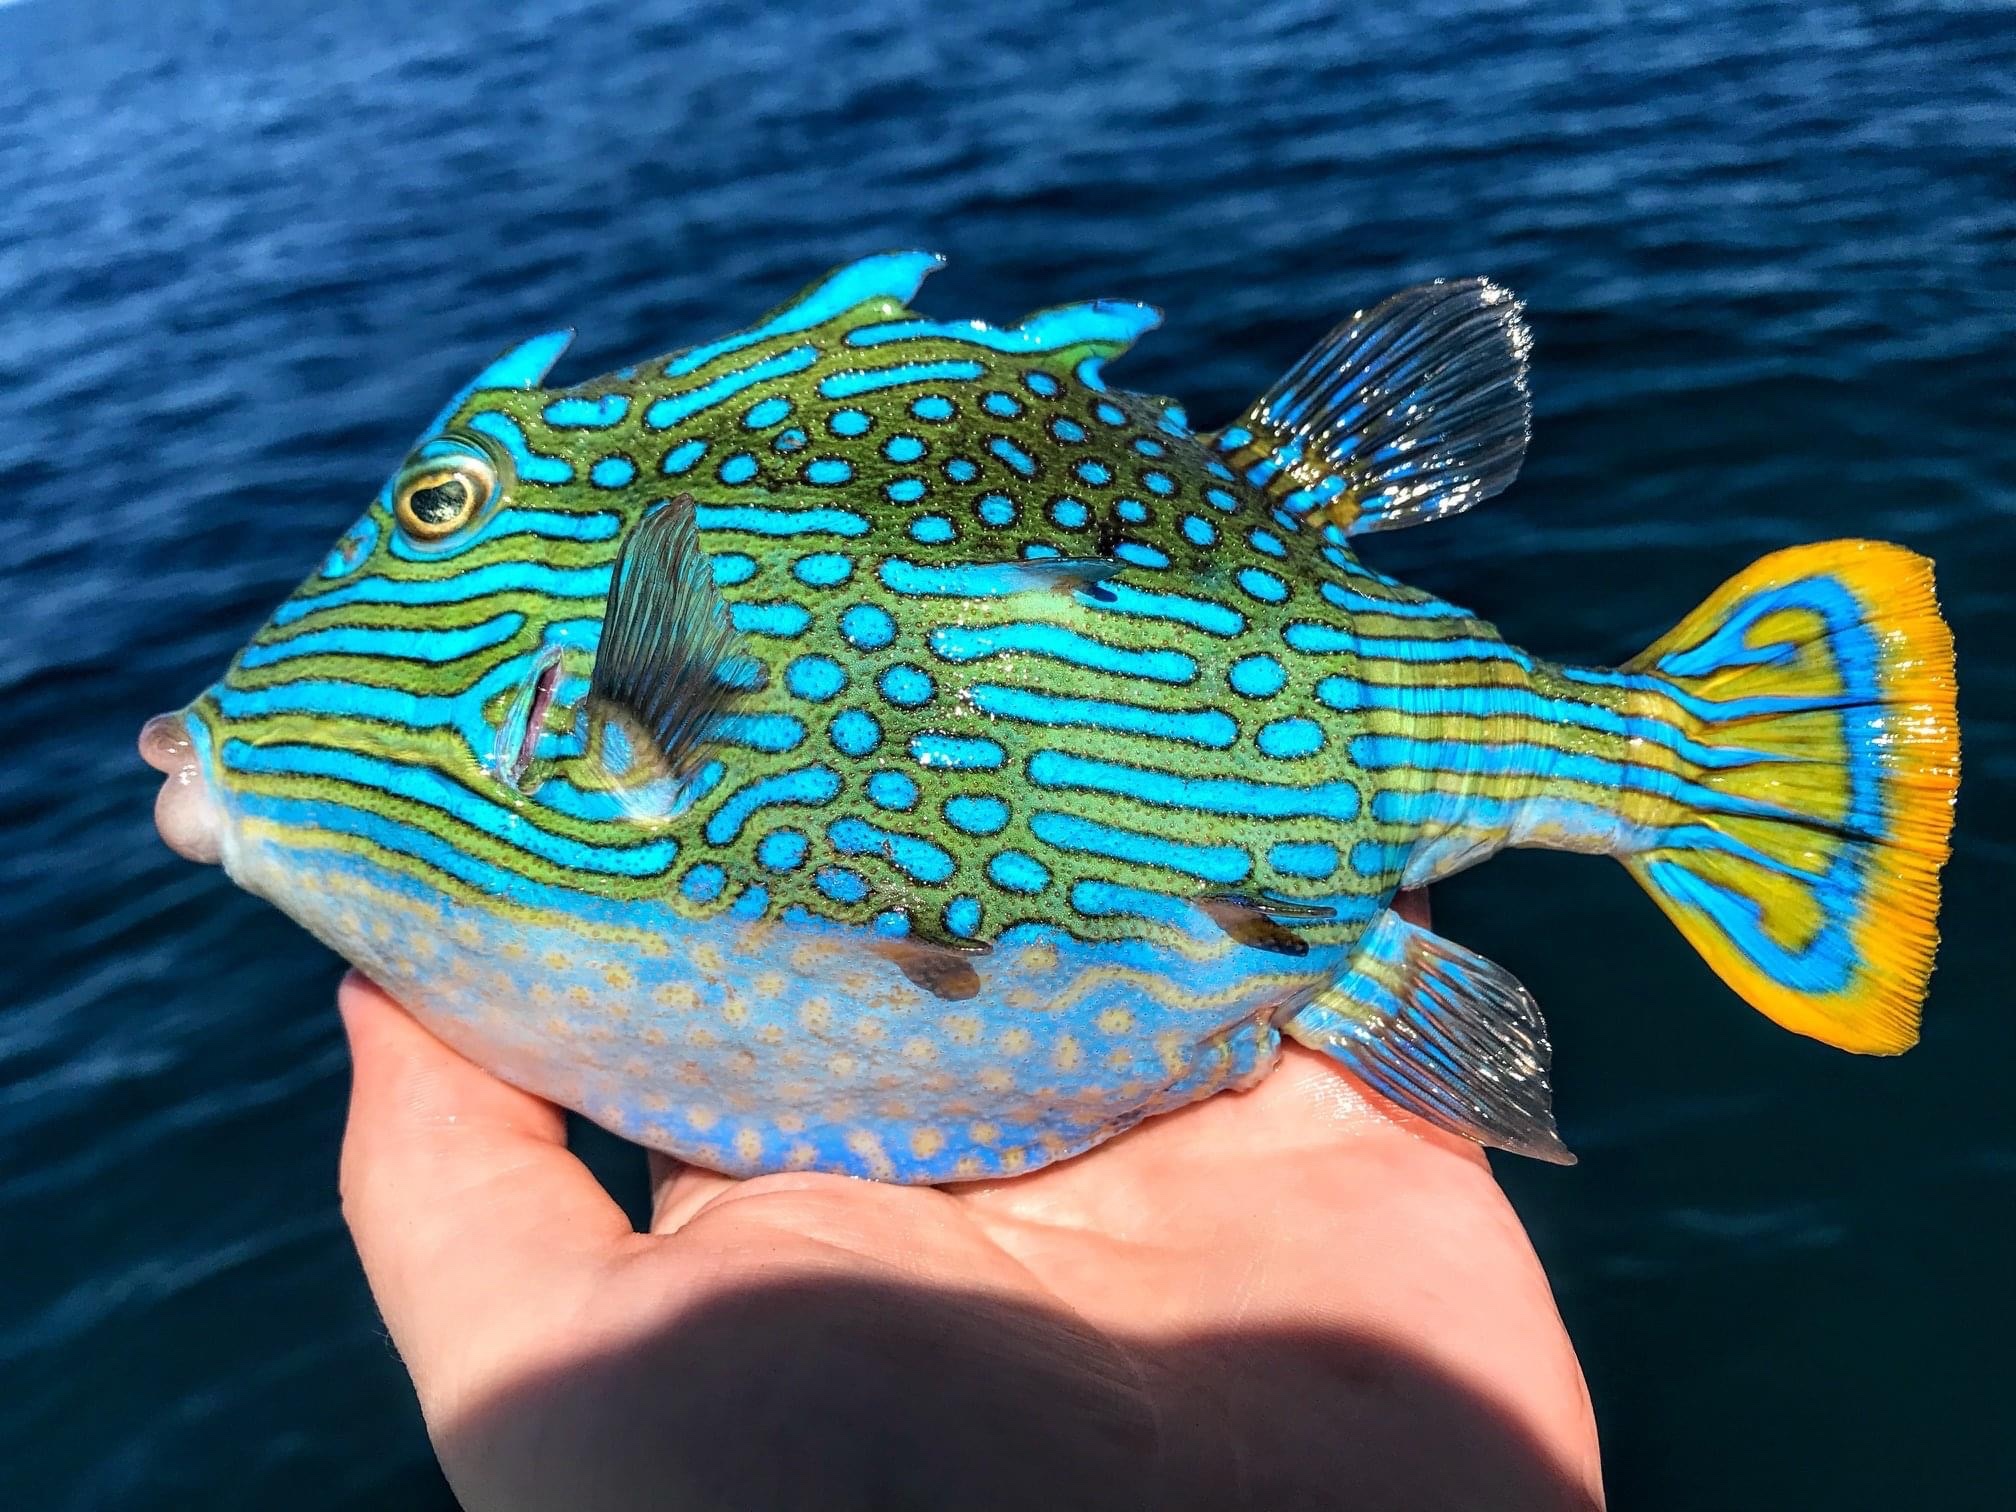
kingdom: Animalia
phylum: Chordata
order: Tetraodontiformes
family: Aracanidae
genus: Aracana
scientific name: Aracana aurita
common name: Shaw’s cowfish
